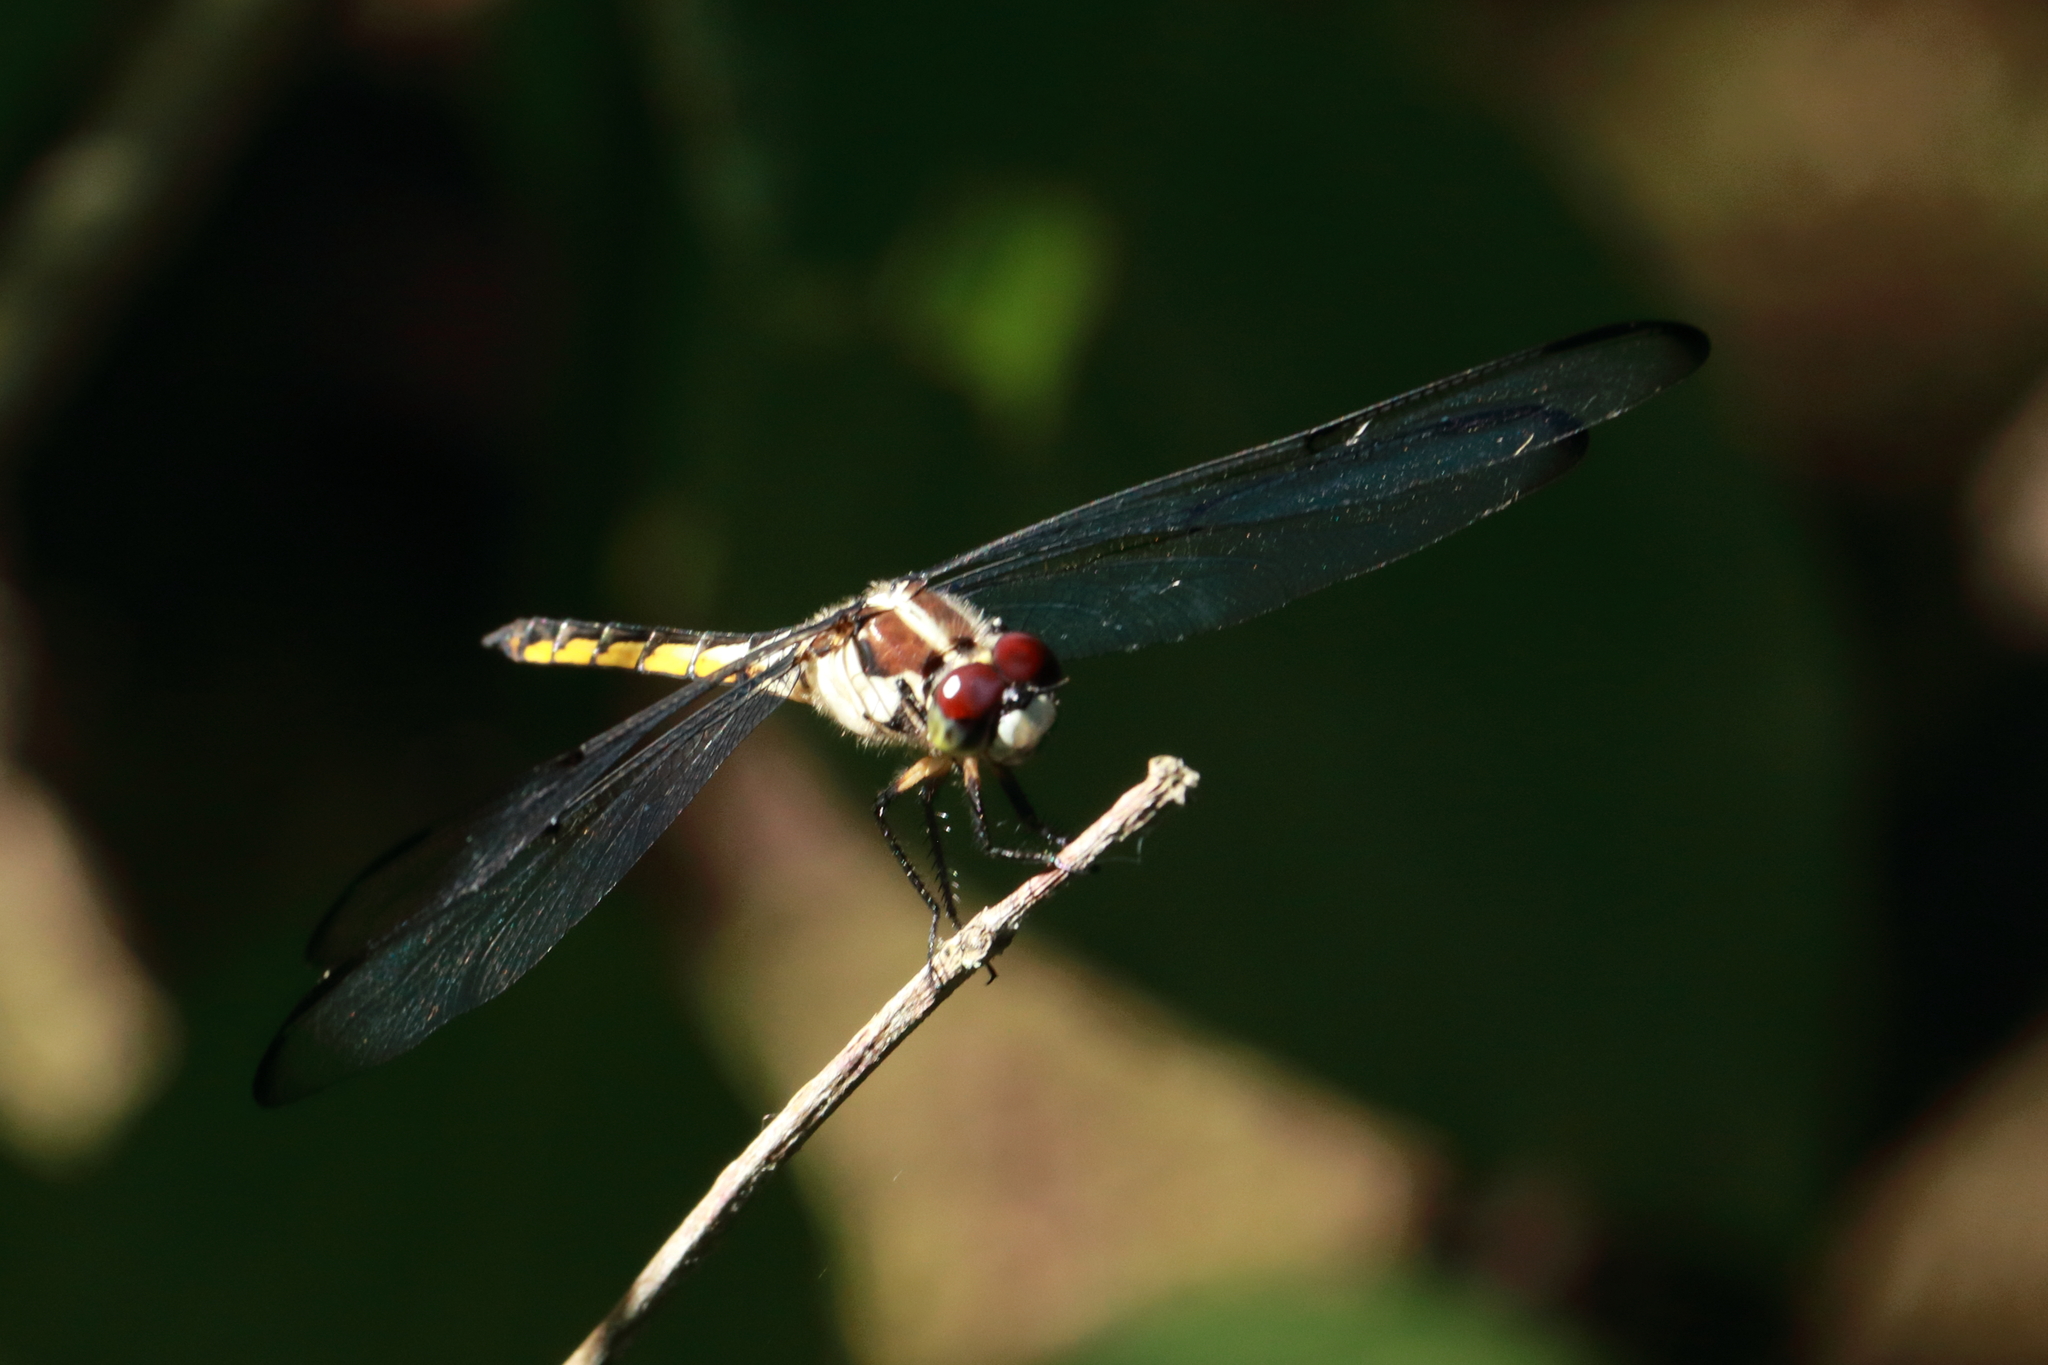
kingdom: Animalia
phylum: Arthropoda
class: Insecta
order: Odonata
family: Libellulidae
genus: Libellula
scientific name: Libellula vibrans
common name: Great blue skimmer
